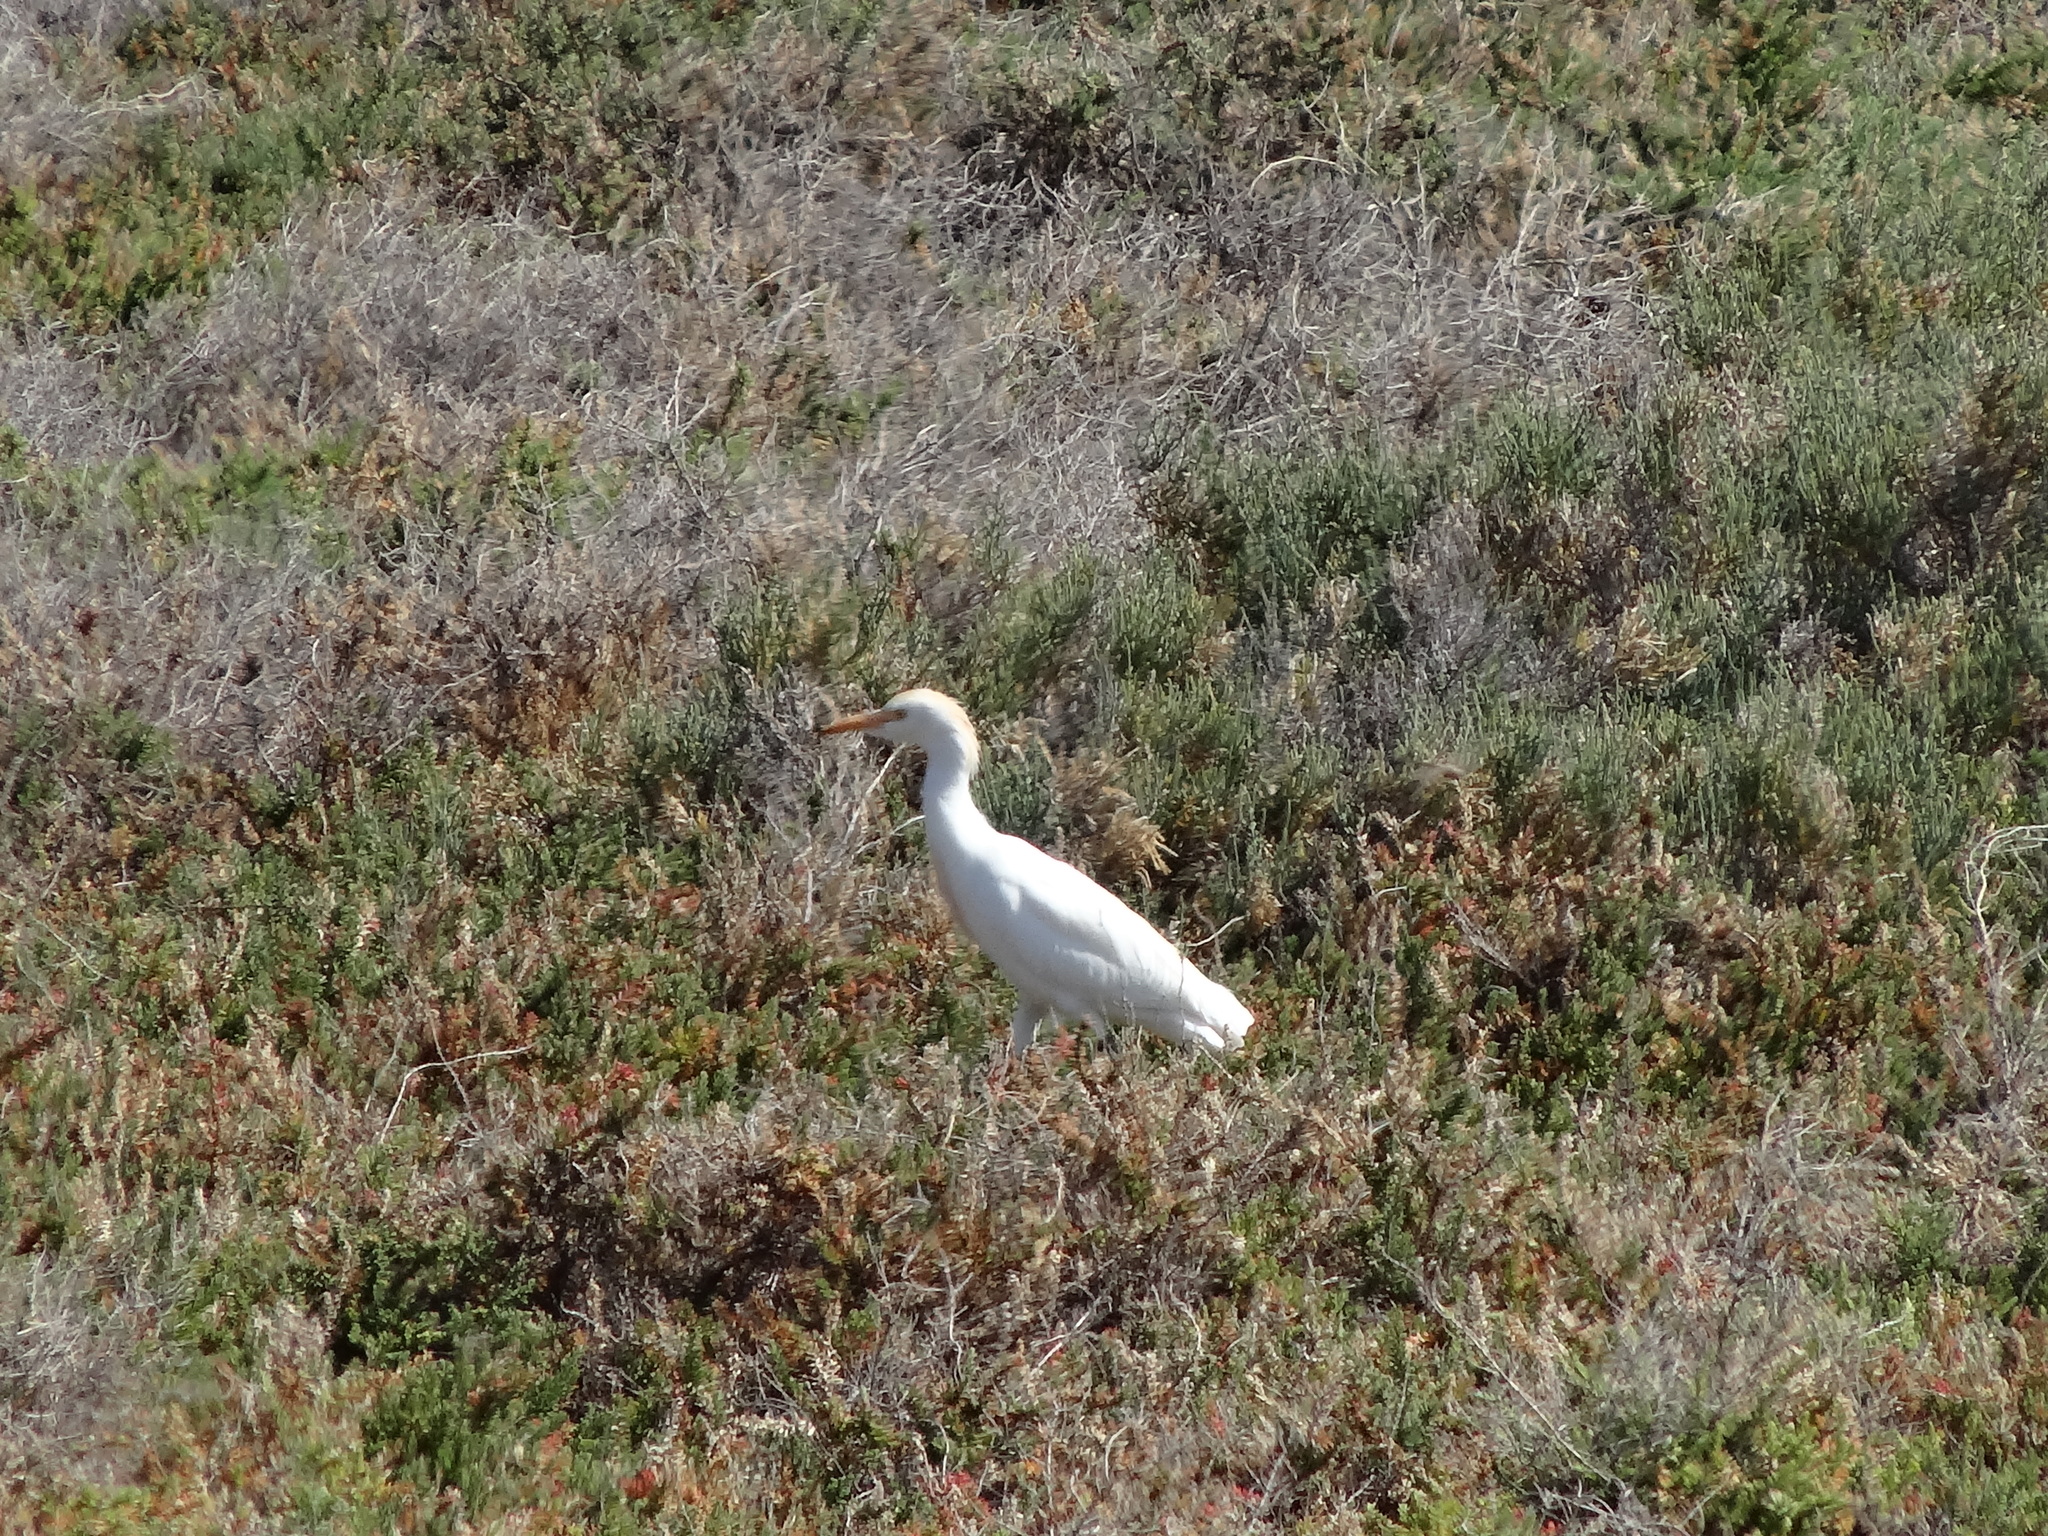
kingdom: Animalia
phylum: Chordata
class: Aves
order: Pelecaniformes
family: Ardeidae
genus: Bubulcus
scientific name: Bubulcus ibis
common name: Cattle egret
